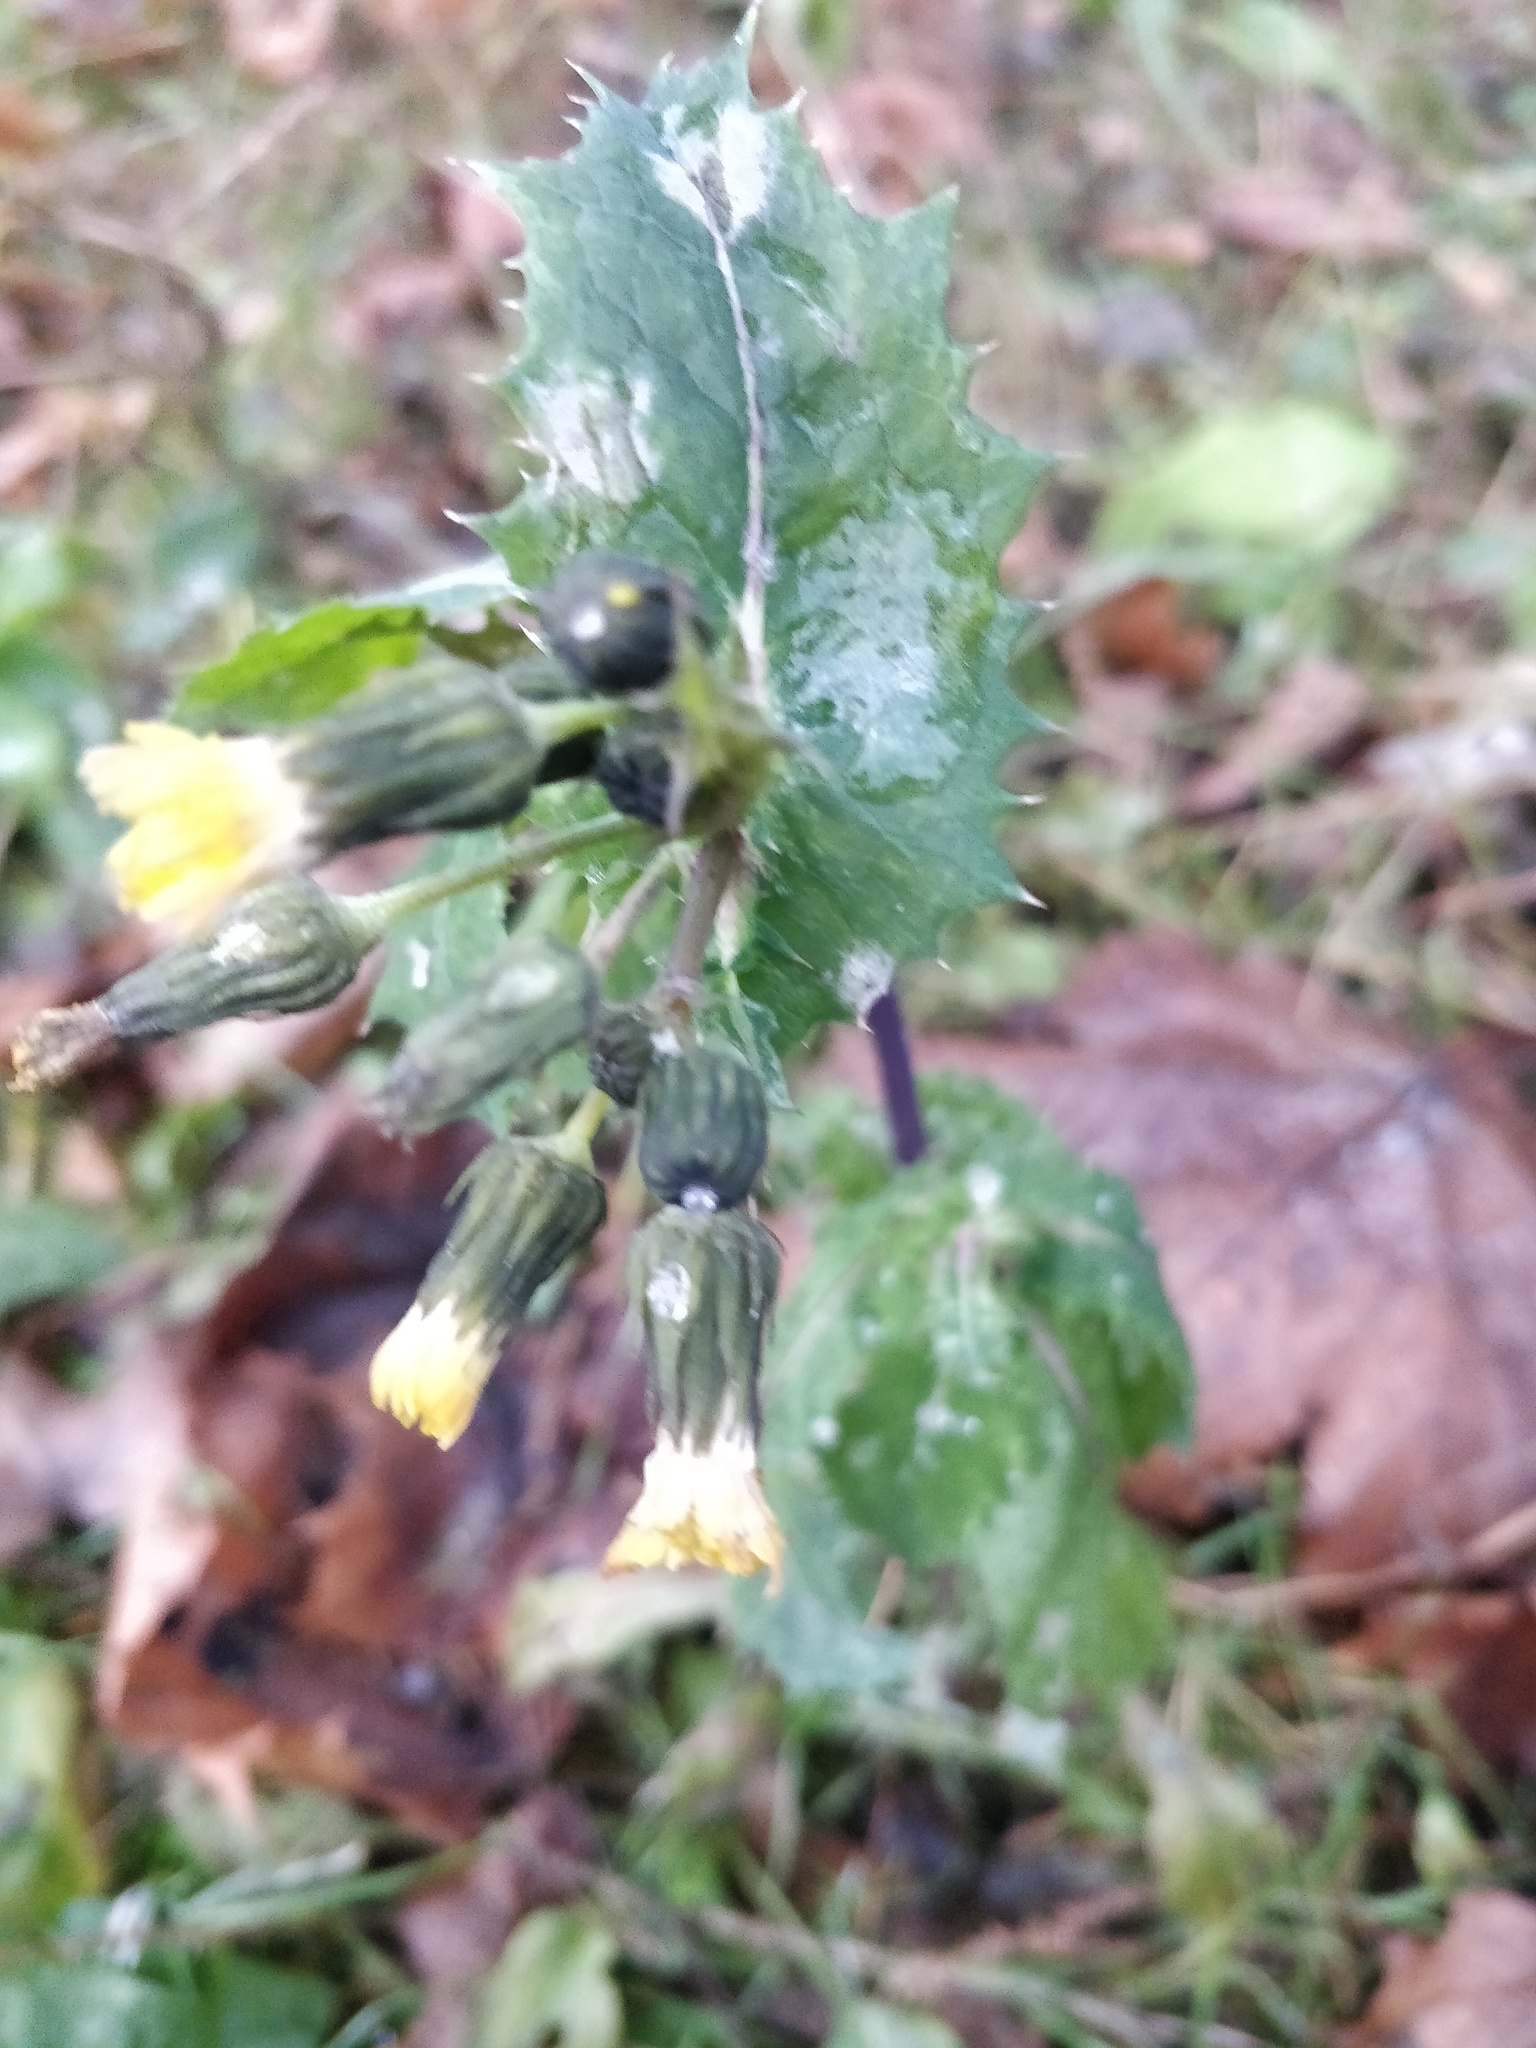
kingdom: Plantae
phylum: Tracheophyta
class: Magnoliopsida
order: Asterales
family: Asteraceae
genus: Sonchus
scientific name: Sonchus oleraceus
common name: Common sowthistle
